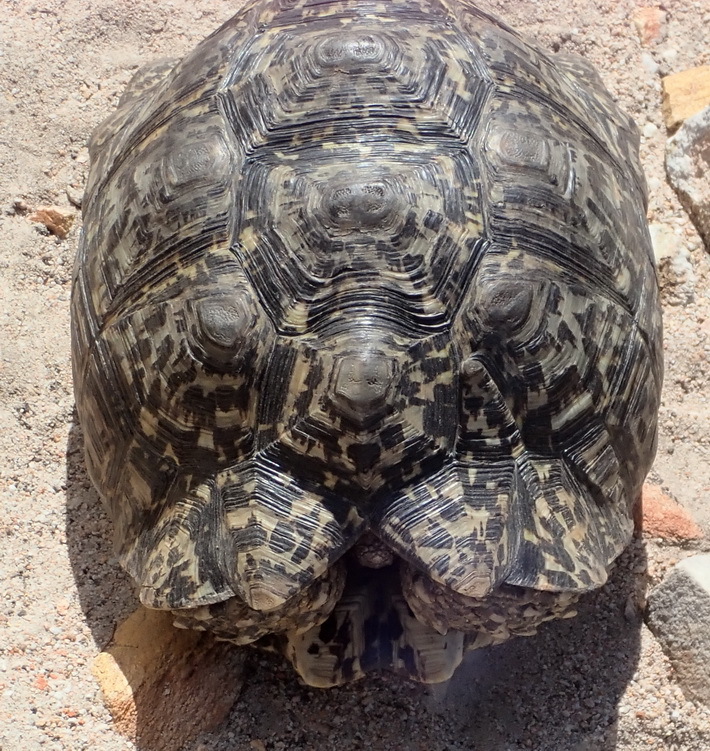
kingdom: Animalia
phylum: Chordata
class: Testudines
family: Testudinidae
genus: Stigmochelys
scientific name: Stigmochelys pardalis
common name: Leopard tortoise
